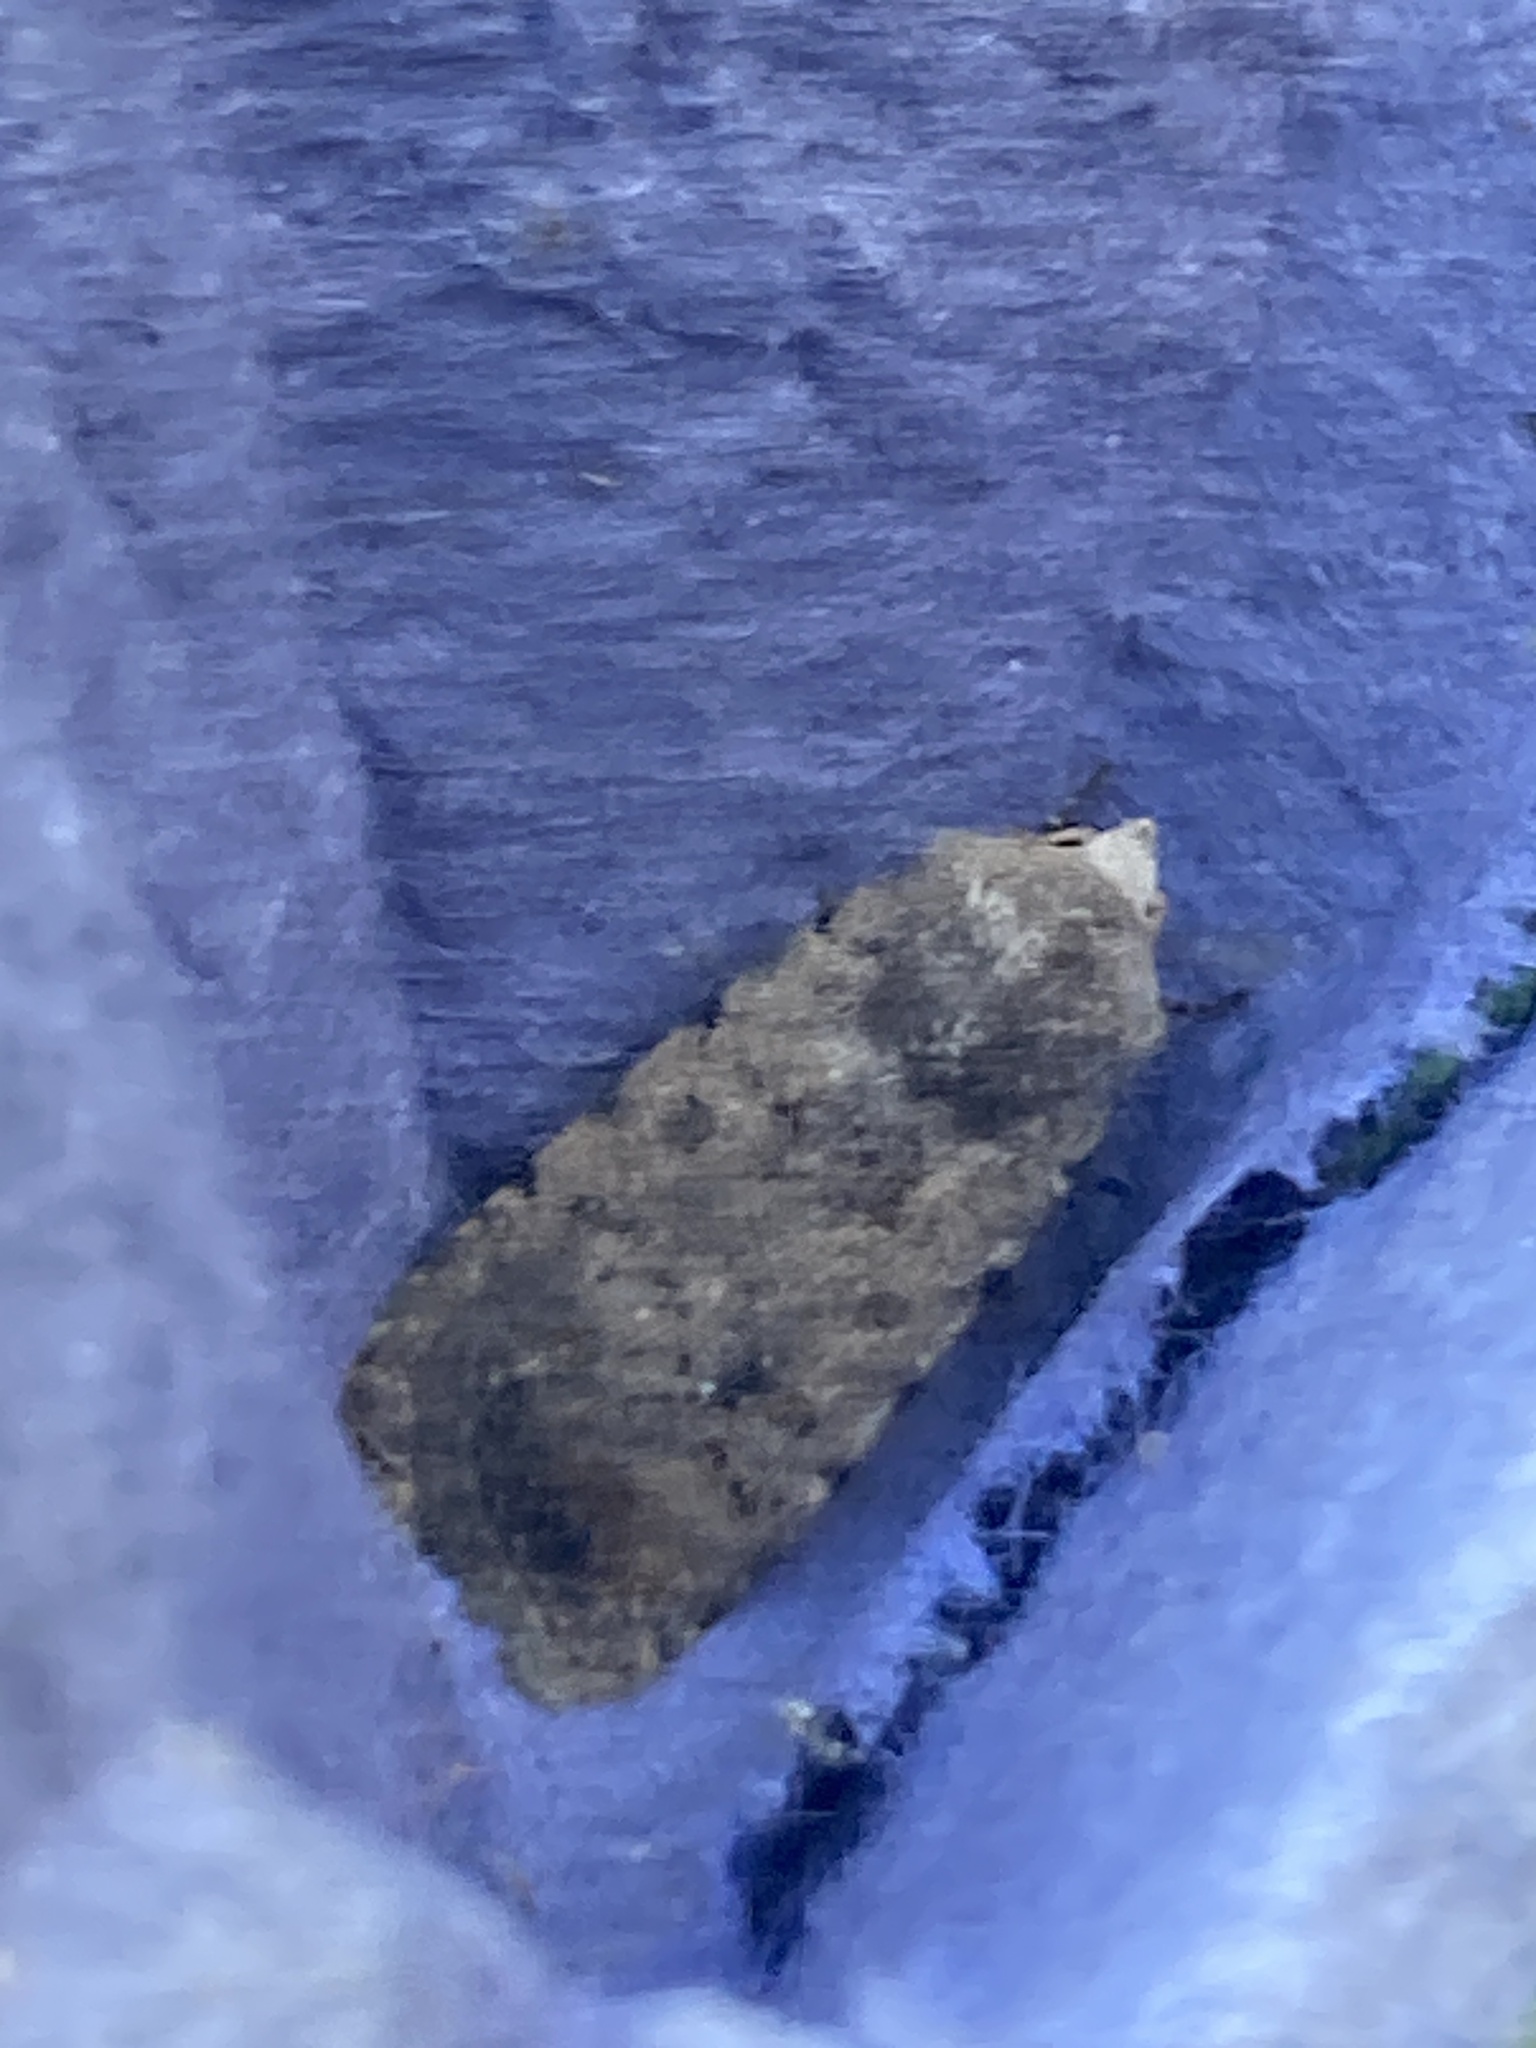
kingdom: Animalia
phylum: Arthropoda
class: Insecta
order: Lepidoptera
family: Noctuidae
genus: Caradrina
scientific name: Caradrina clavipalpis
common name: Pale mottled willow
